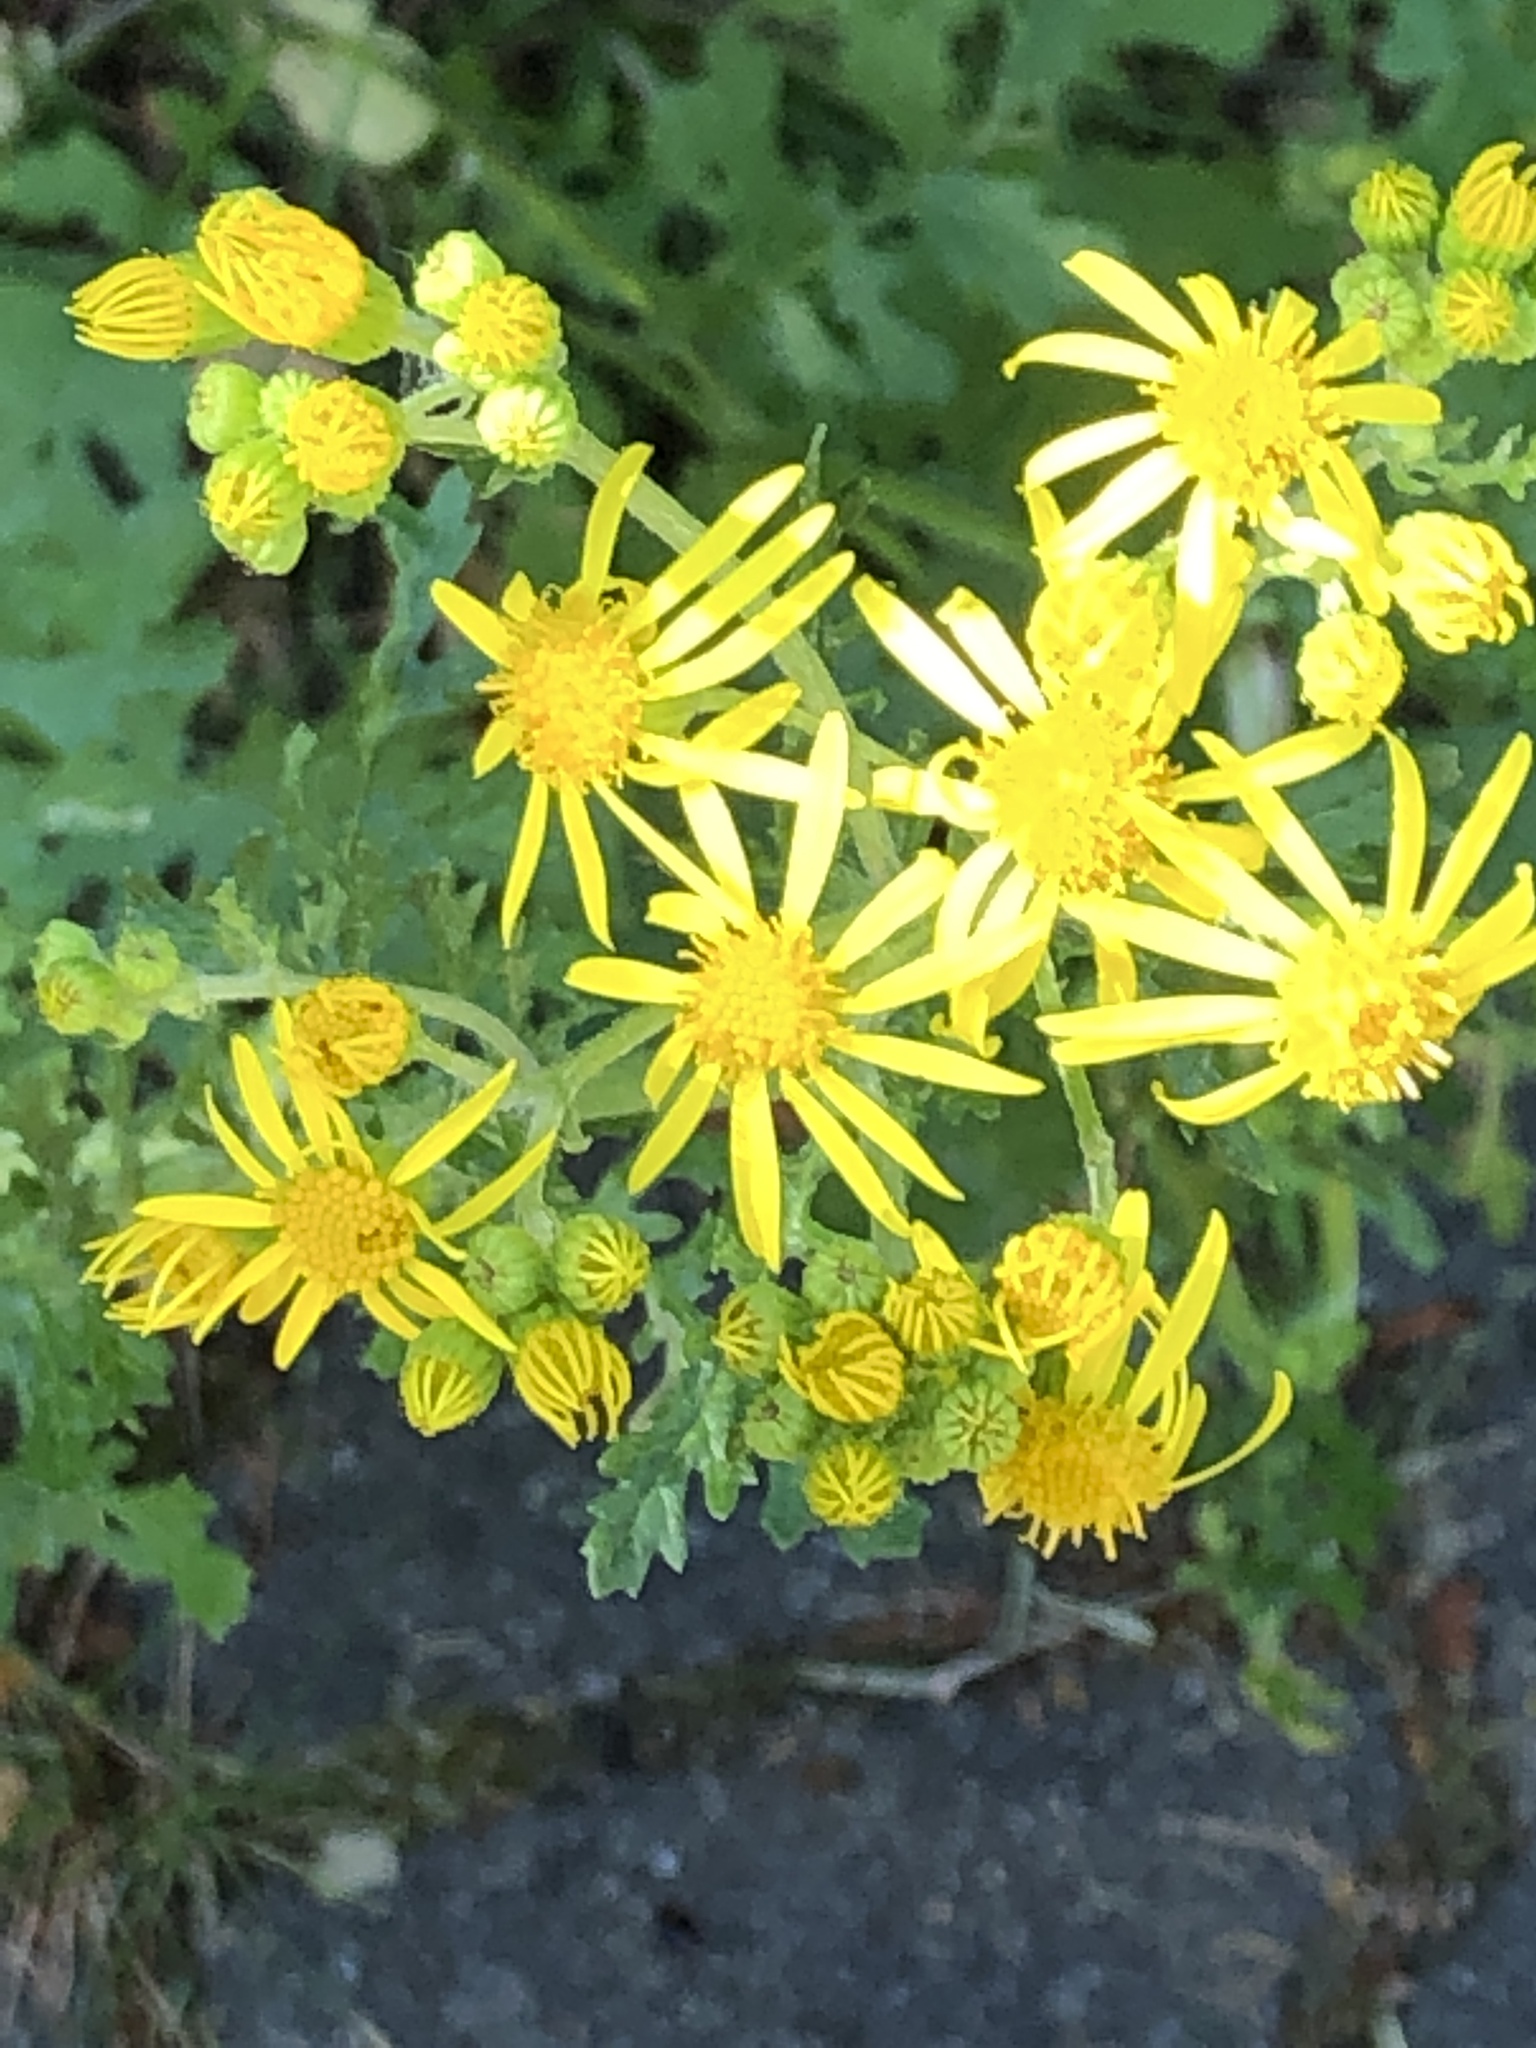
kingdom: Plantae
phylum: Tracheophyta
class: Magnoliopsida
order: Asterales
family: Asteraceae
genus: Jacobaea
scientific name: Jacobaea vulgaris
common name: Stinking willie
